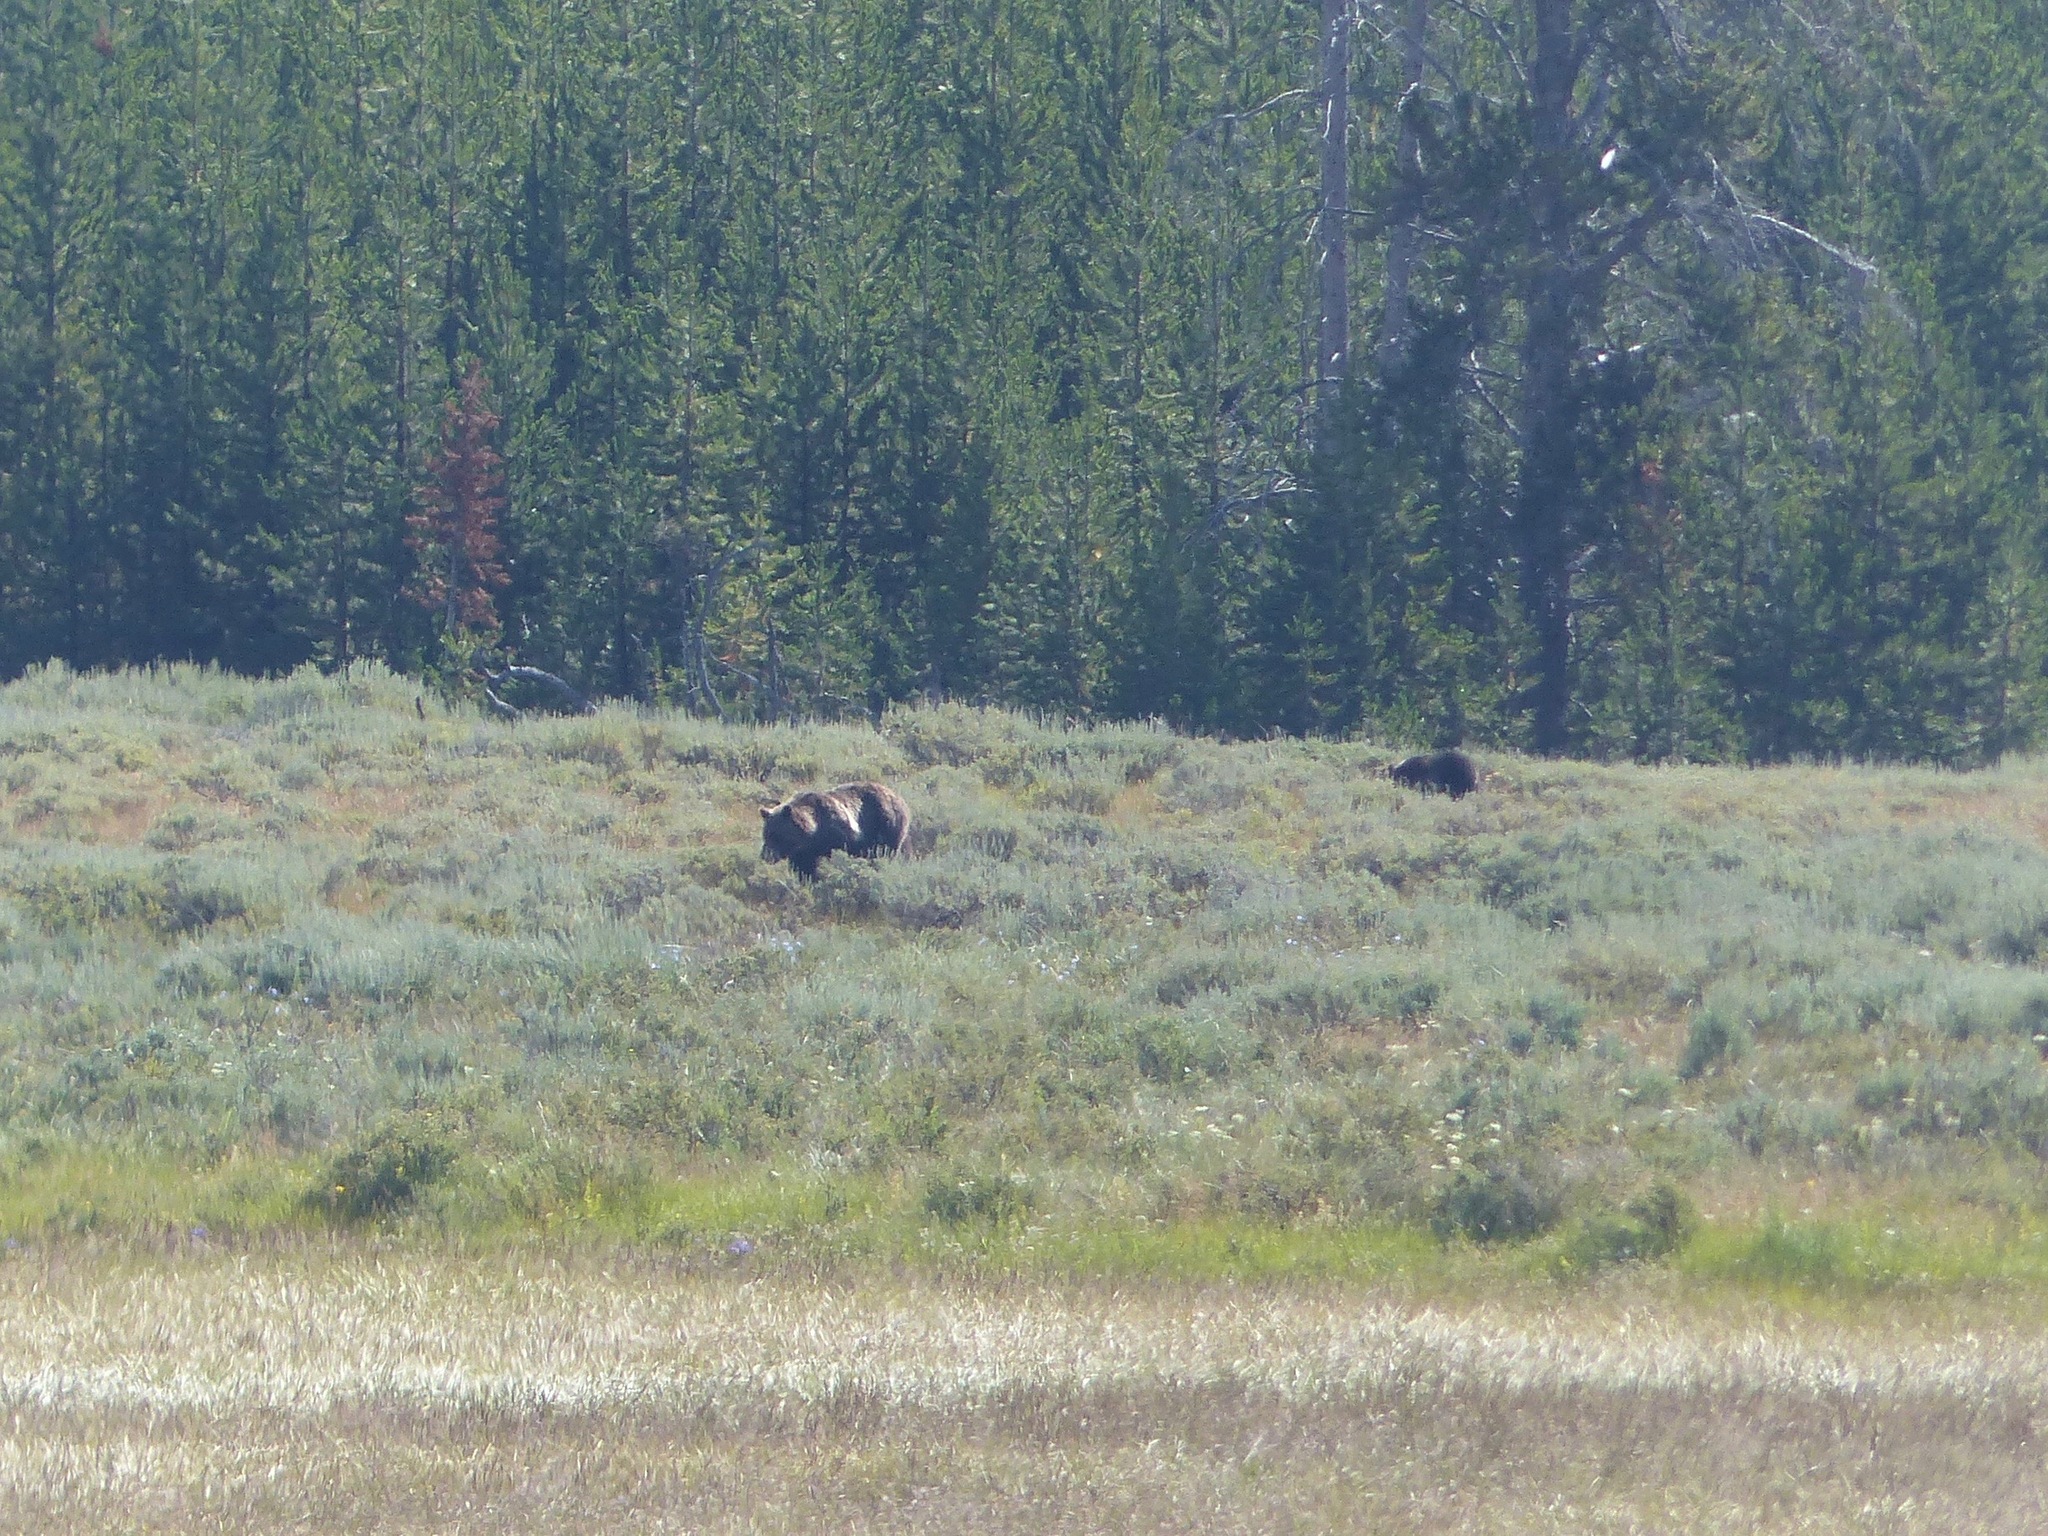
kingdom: Animalia
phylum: Chordata
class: Mammalia
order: Carnivora
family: Ursidae
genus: Ursus
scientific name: Ursus arctos
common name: Brown bear
